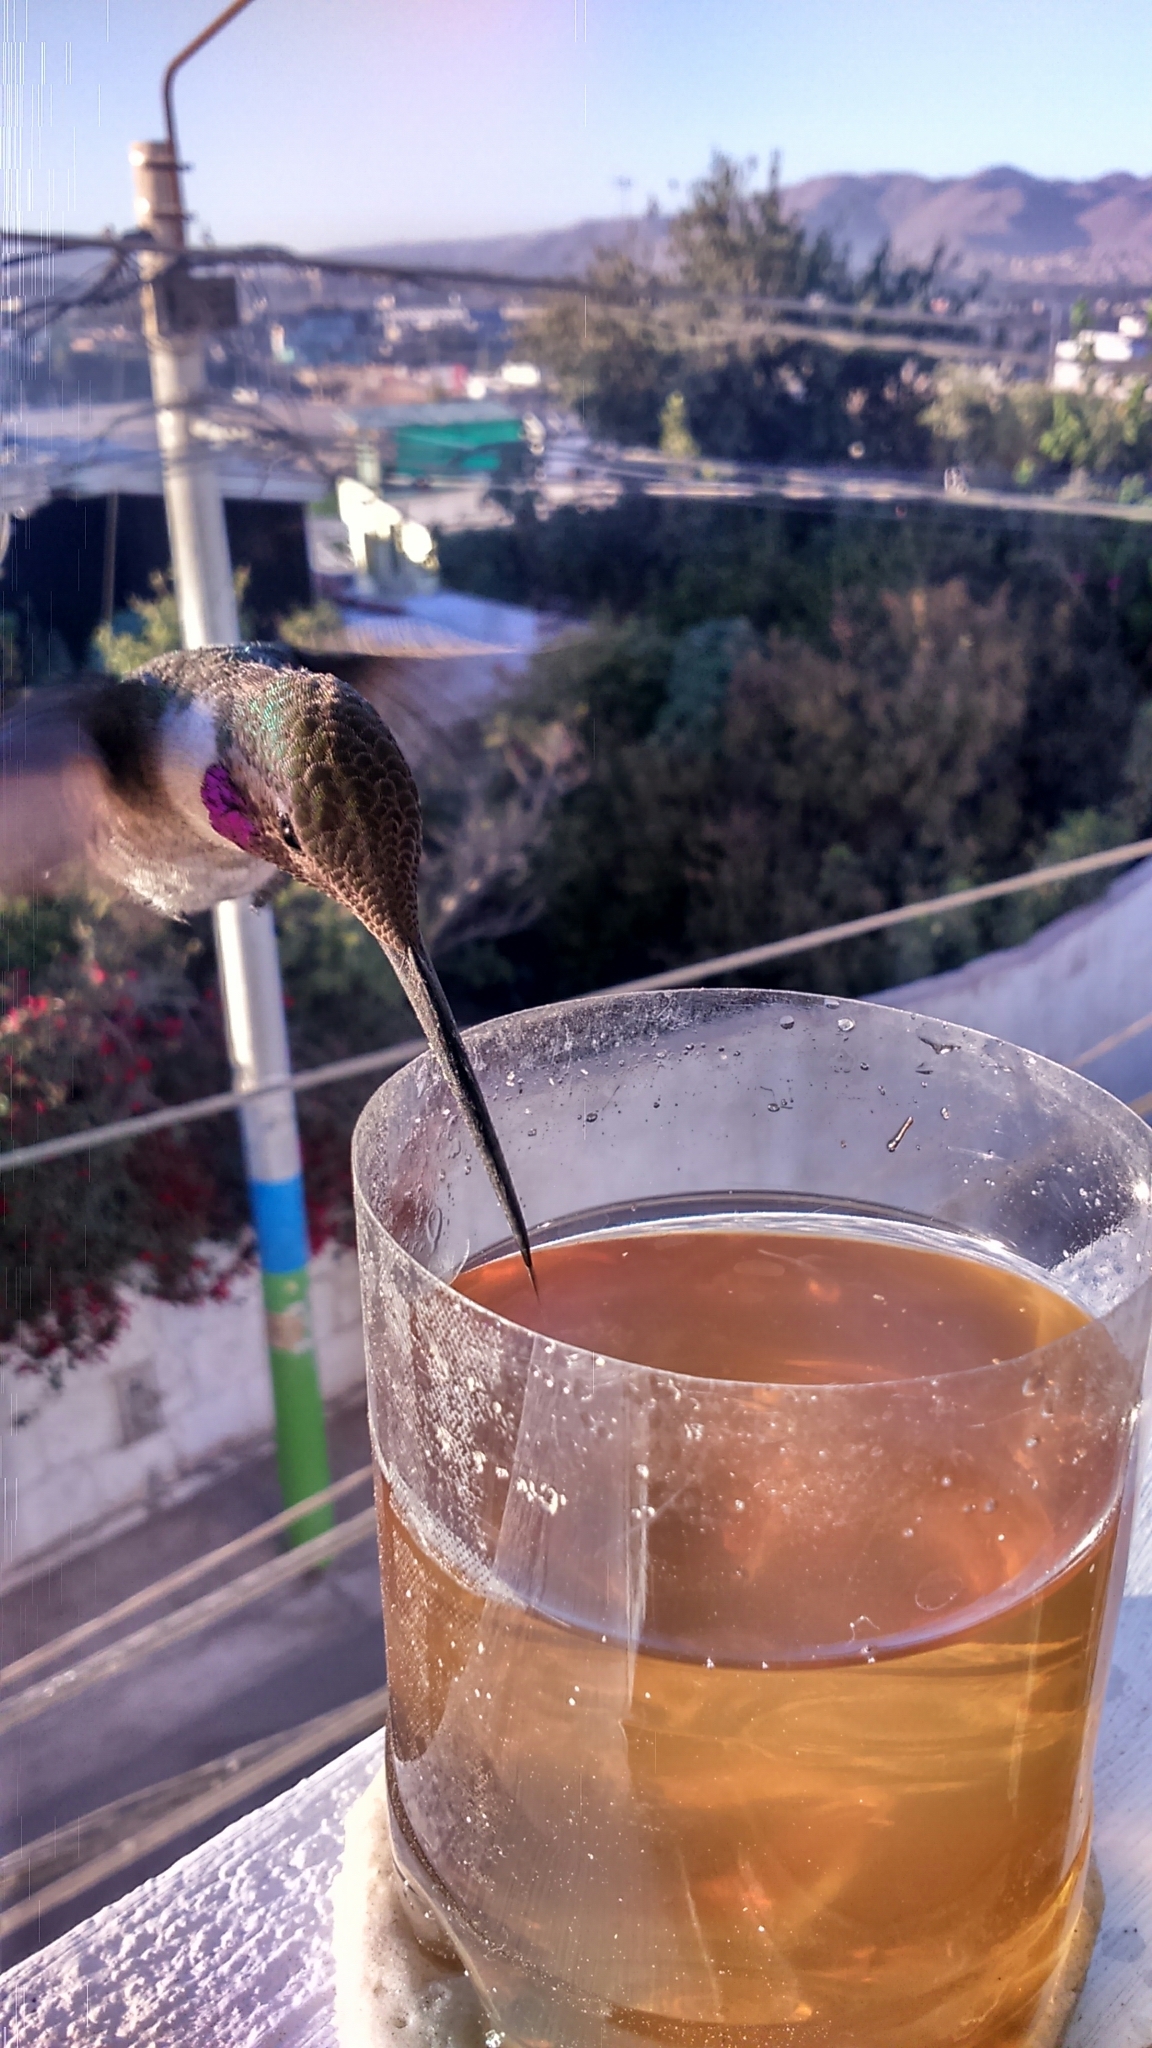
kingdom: Animalia
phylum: Chordata
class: Aves
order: Apodiformes
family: Trochilidae
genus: Rhodopis
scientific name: Rhodopis vesper
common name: Oasis hummingbird
